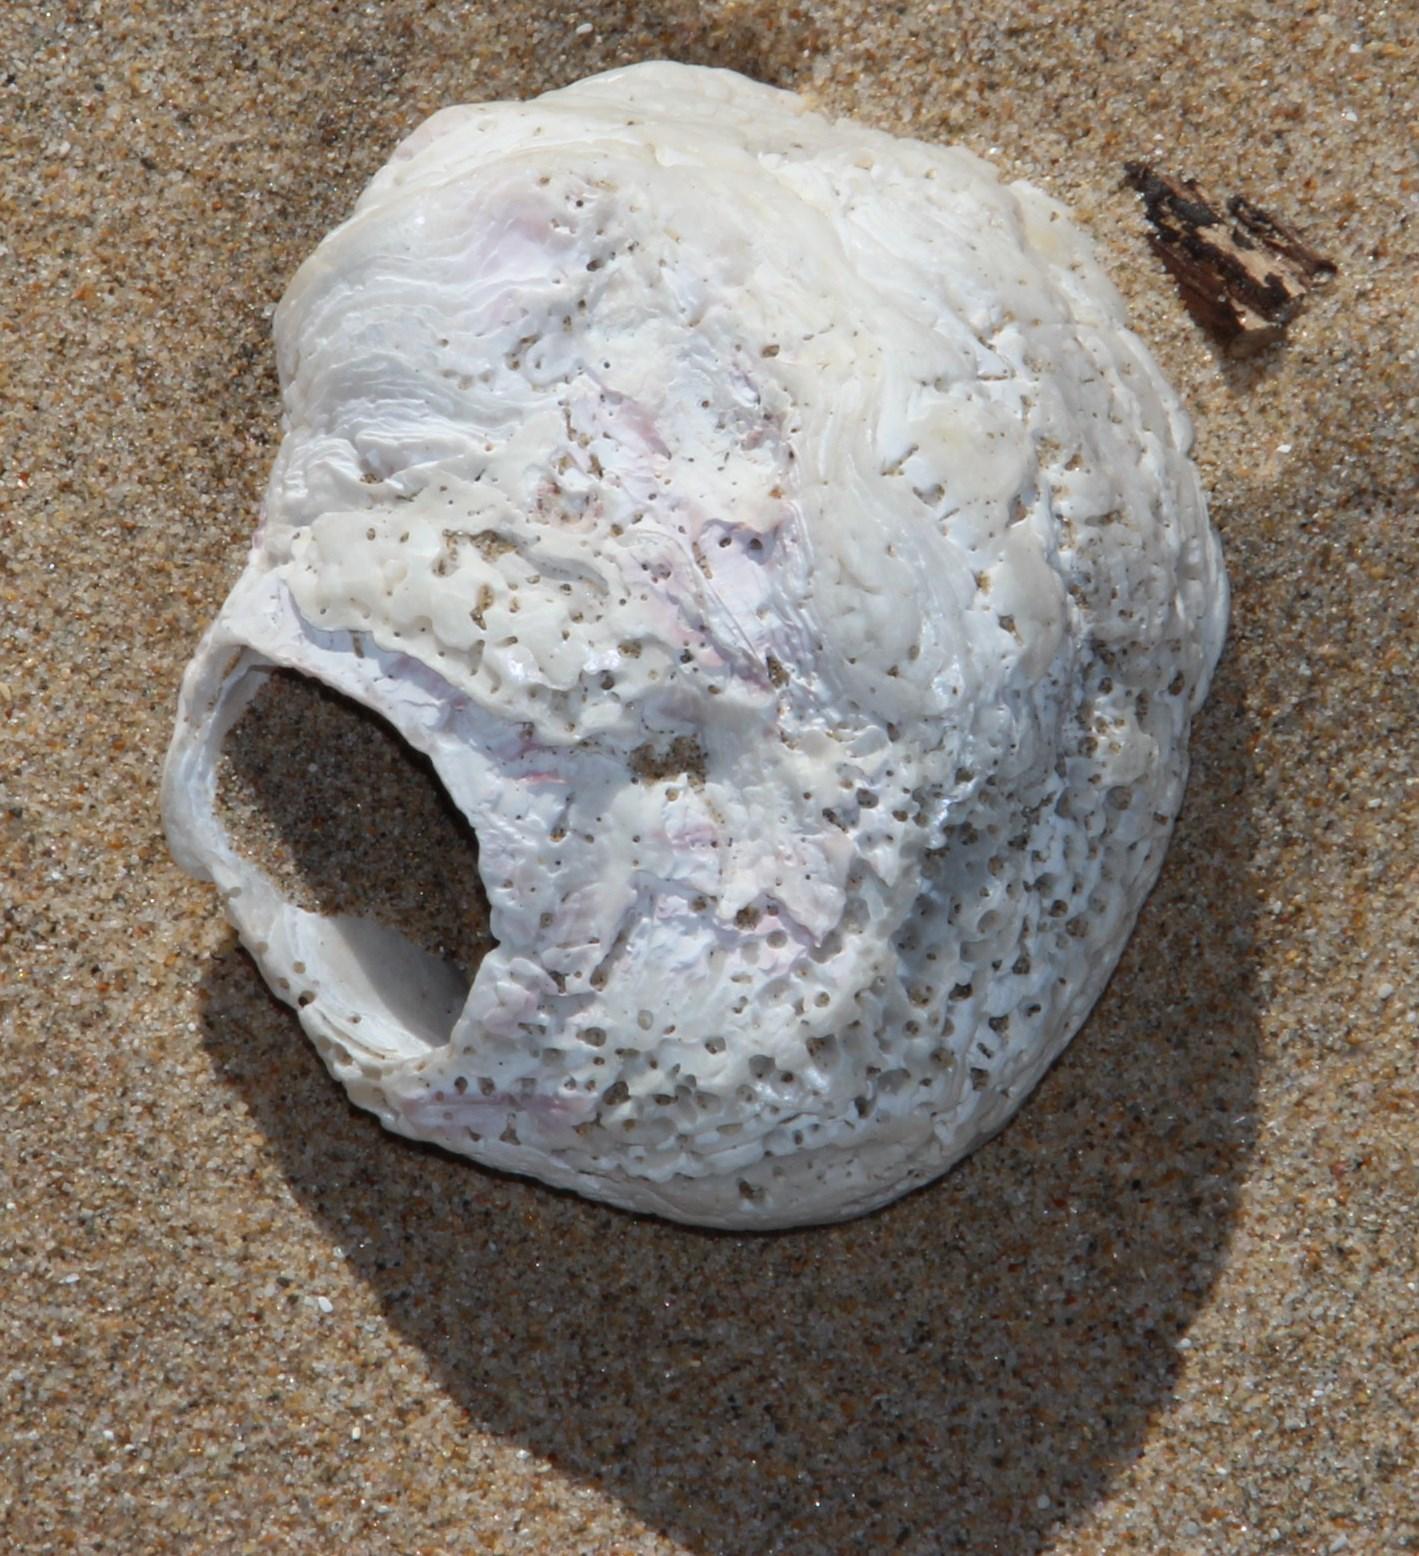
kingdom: Animalia
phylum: Mollusca
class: Bivalvia
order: Ostreida
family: Ostreidae
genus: Striostrea
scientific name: Striostrea margaritacea
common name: Cape rock oyster
